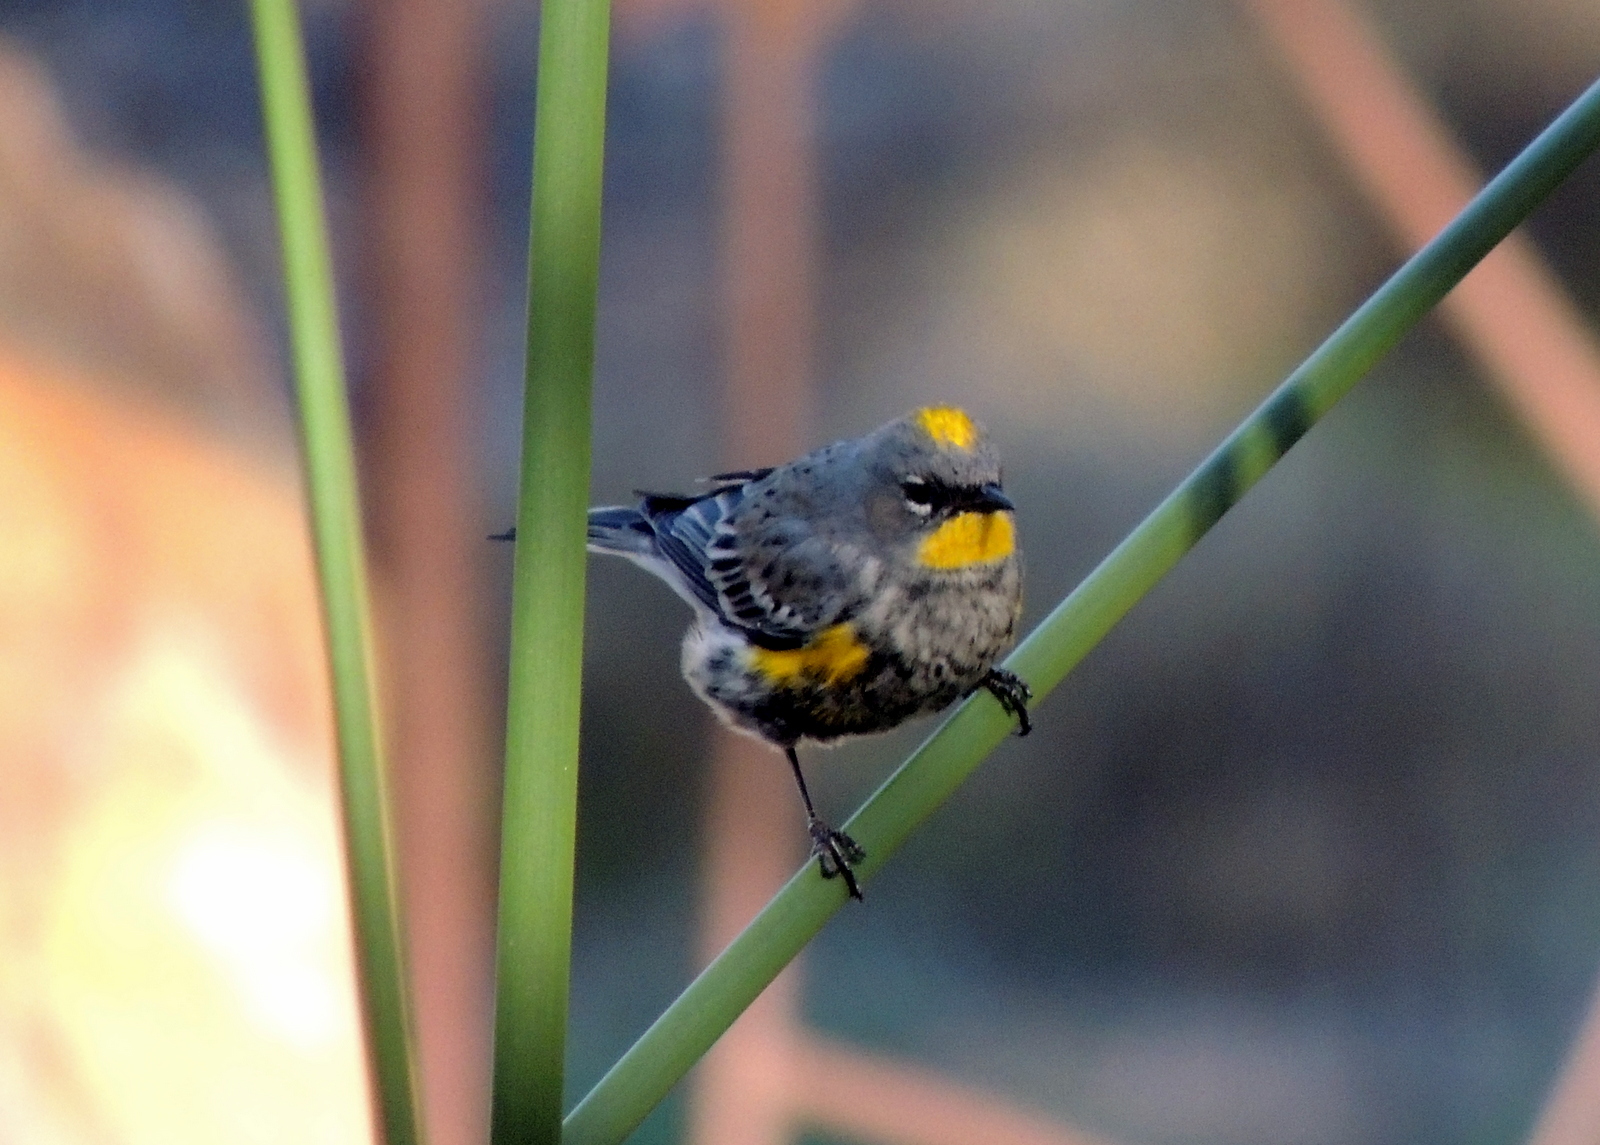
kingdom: Animalia
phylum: Chordata
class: Aves
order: Passeriformes
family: Parulidae
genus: Setophaga
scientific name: Setophaga auduboni
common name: Audubon's warbler
